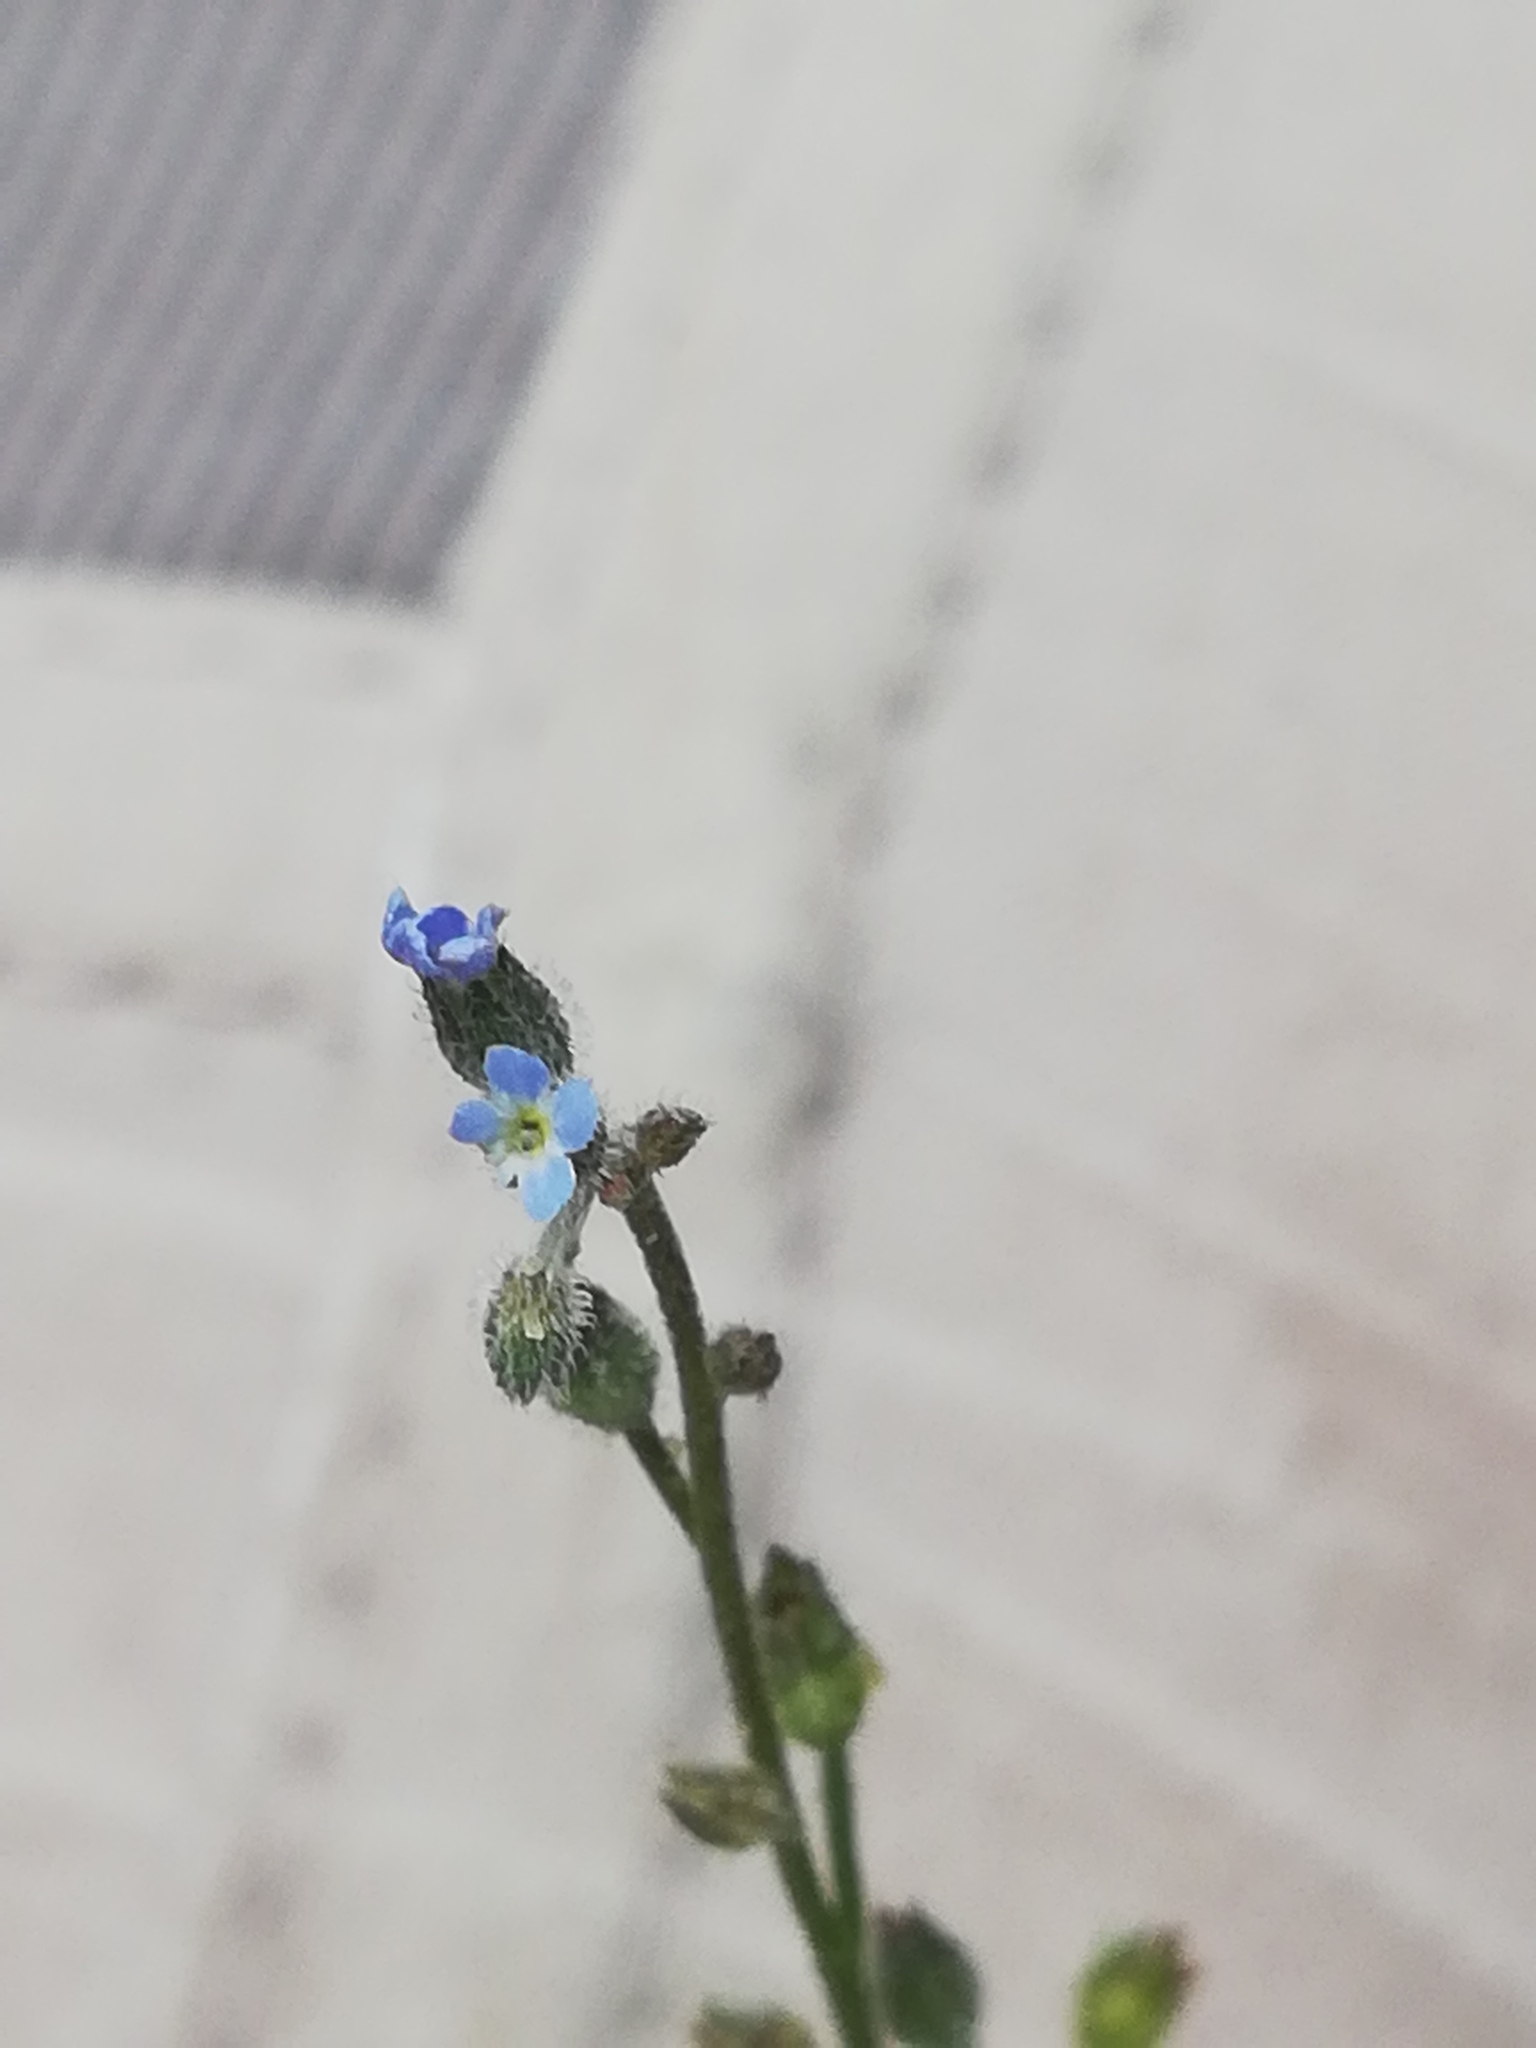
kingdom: Plantae
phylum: Tracheophyta
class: Magnoliopsida
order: Boraginales
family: Boraginaceae
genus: Myosotis
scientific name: Myosotis arvensis
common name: Field forget-me-not
